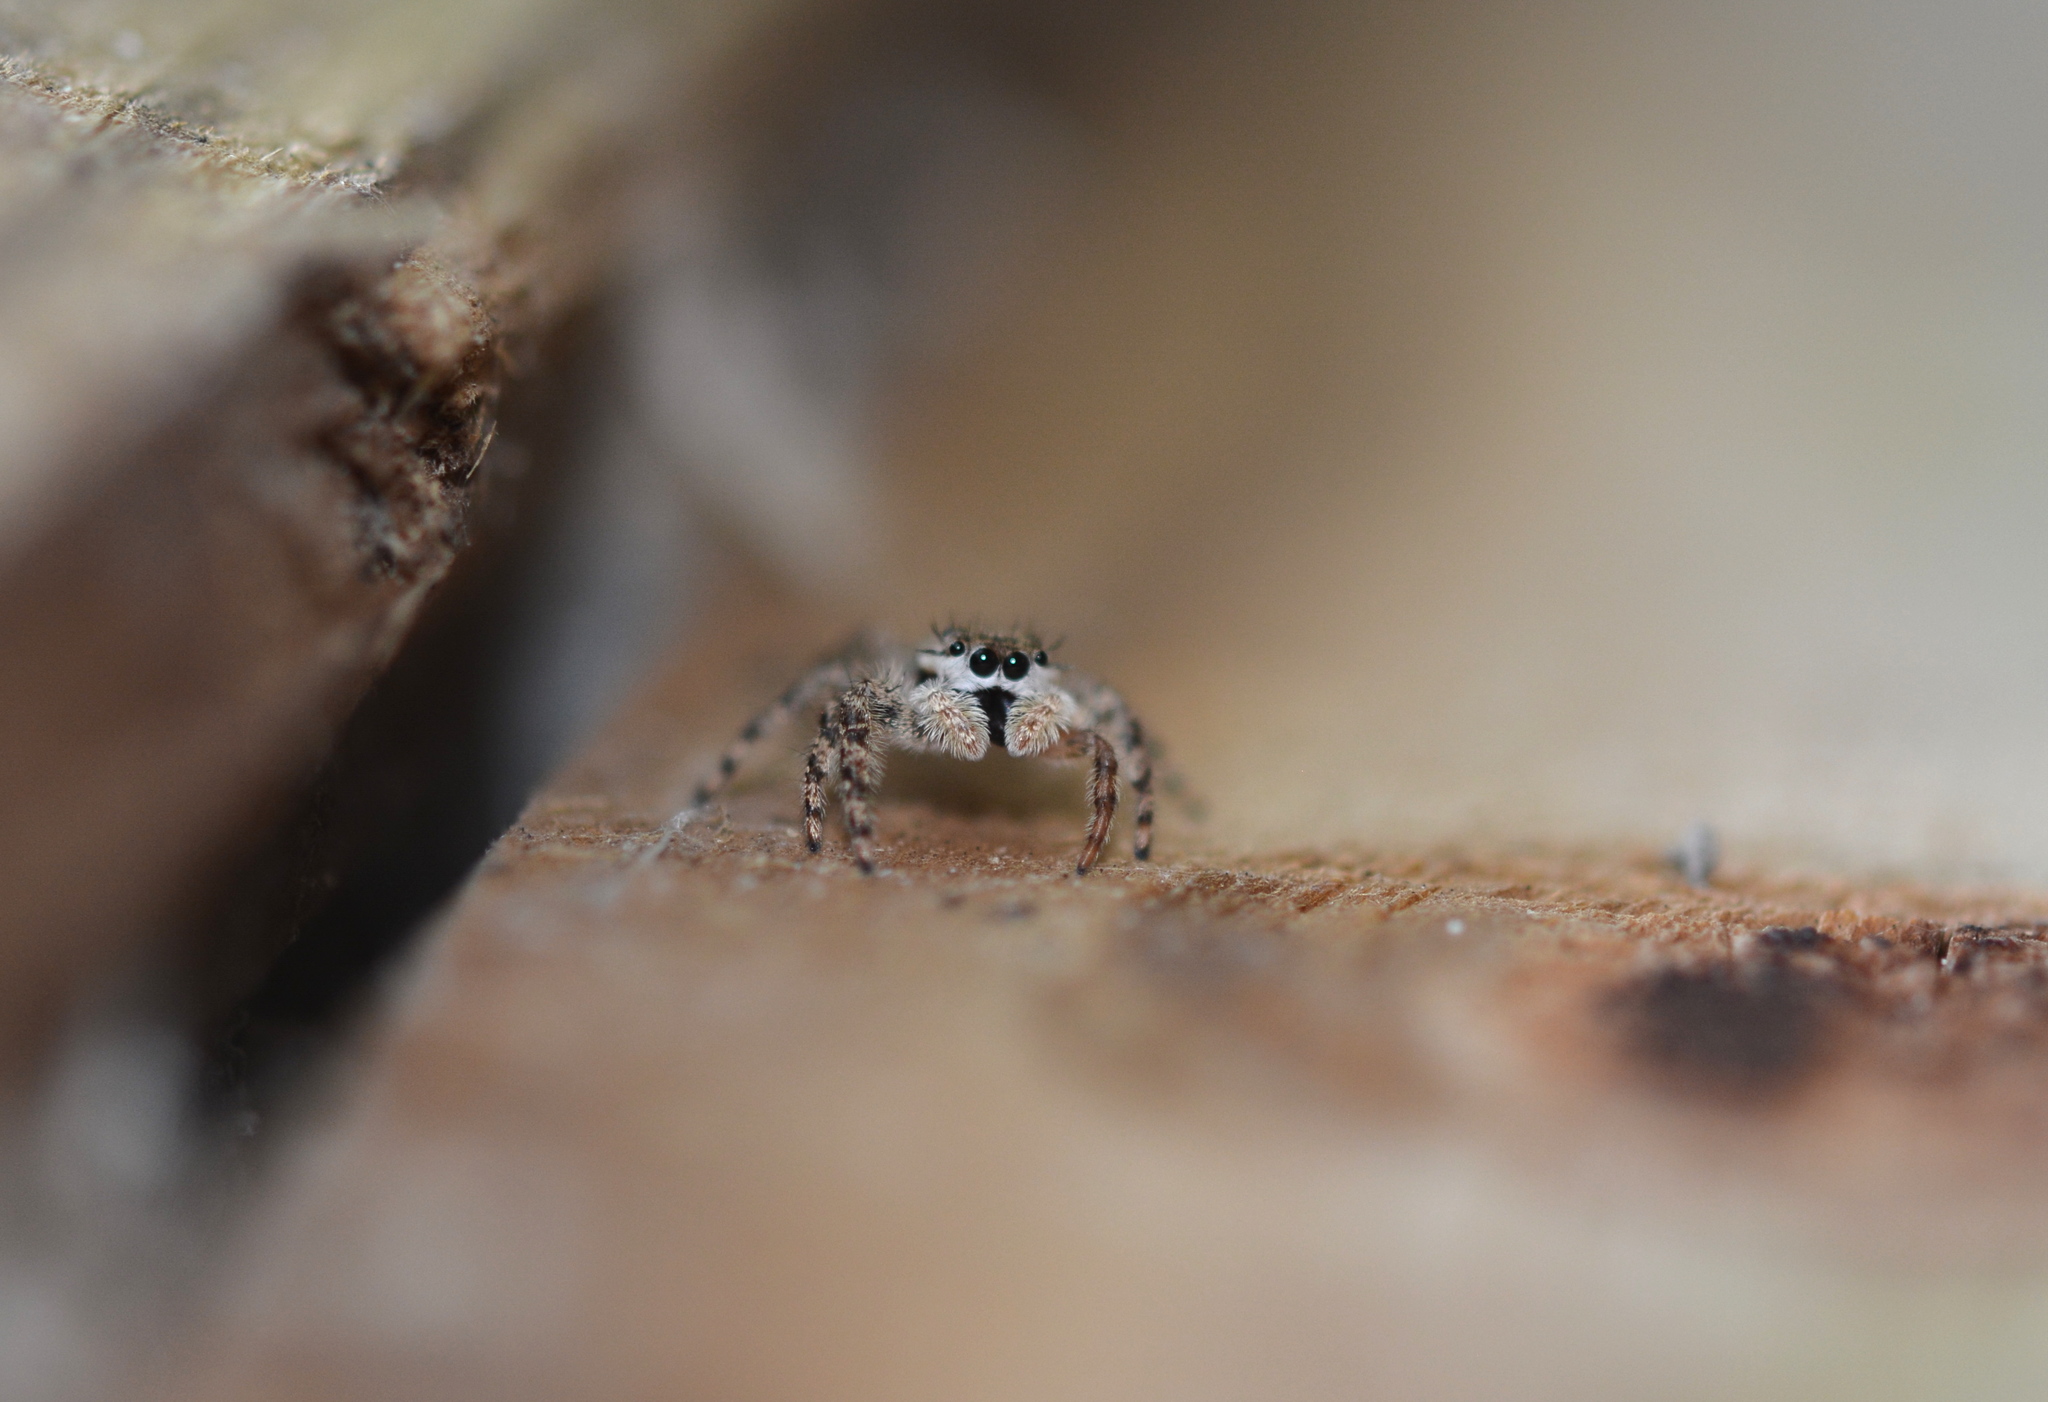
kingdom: Animalia
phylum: Arthropoda
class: Arachnida
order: Araneae
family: Salticidae
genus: Platycryptus
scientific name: Platycryptus undatus
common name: Tan jumping spider
